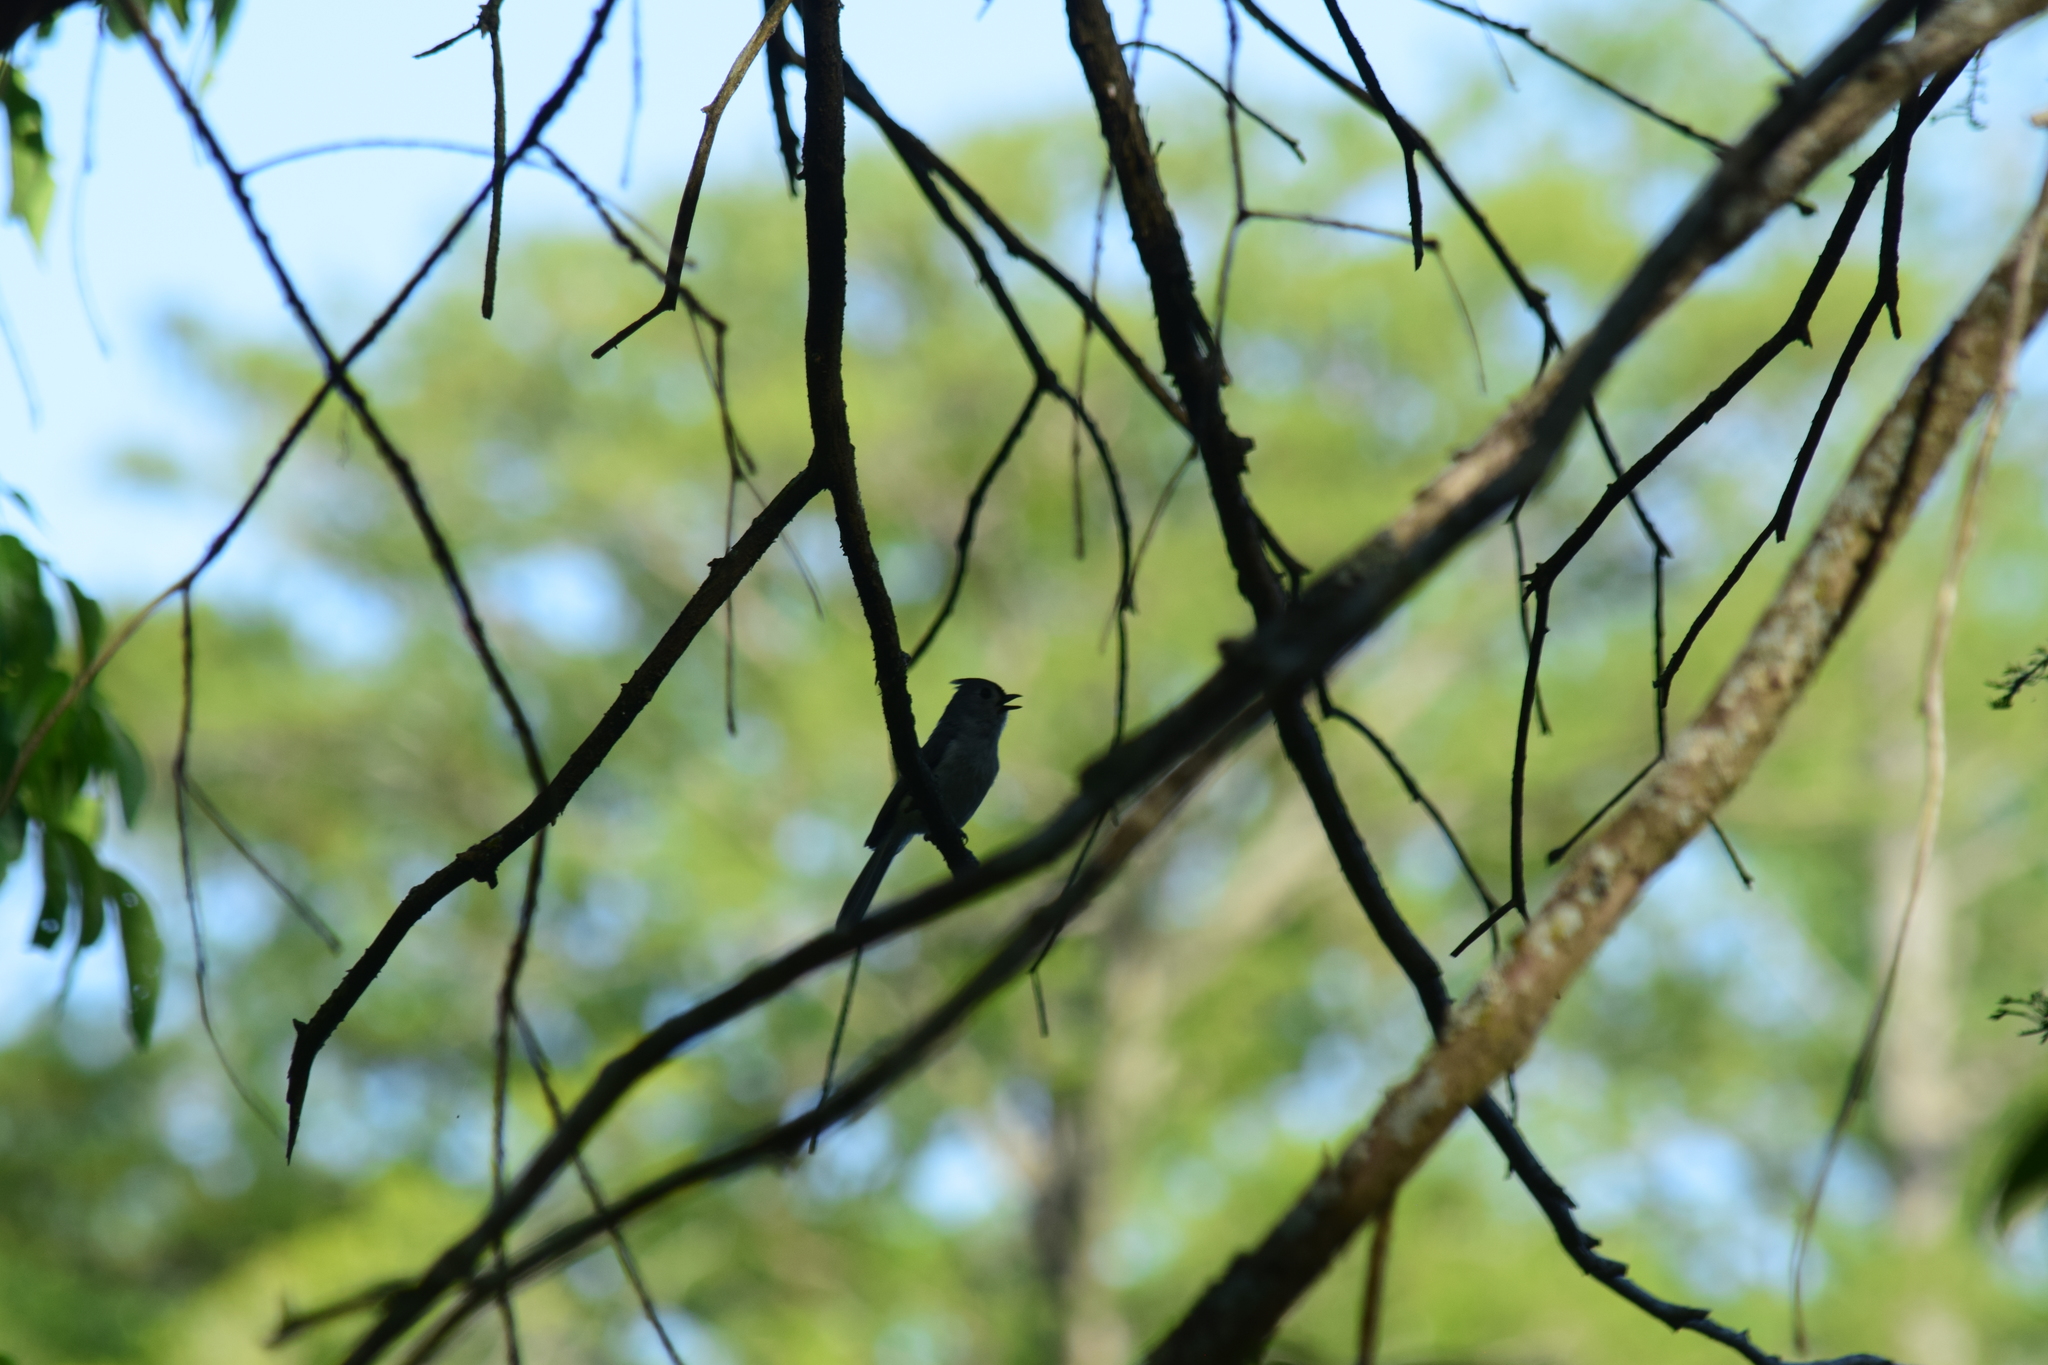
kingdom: Animalia
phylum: Chordata
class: Aves
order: Passeriformes
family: Paridae
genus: Baeolophus
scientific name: Baeolophus bicolor
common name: Tufted titmouse
